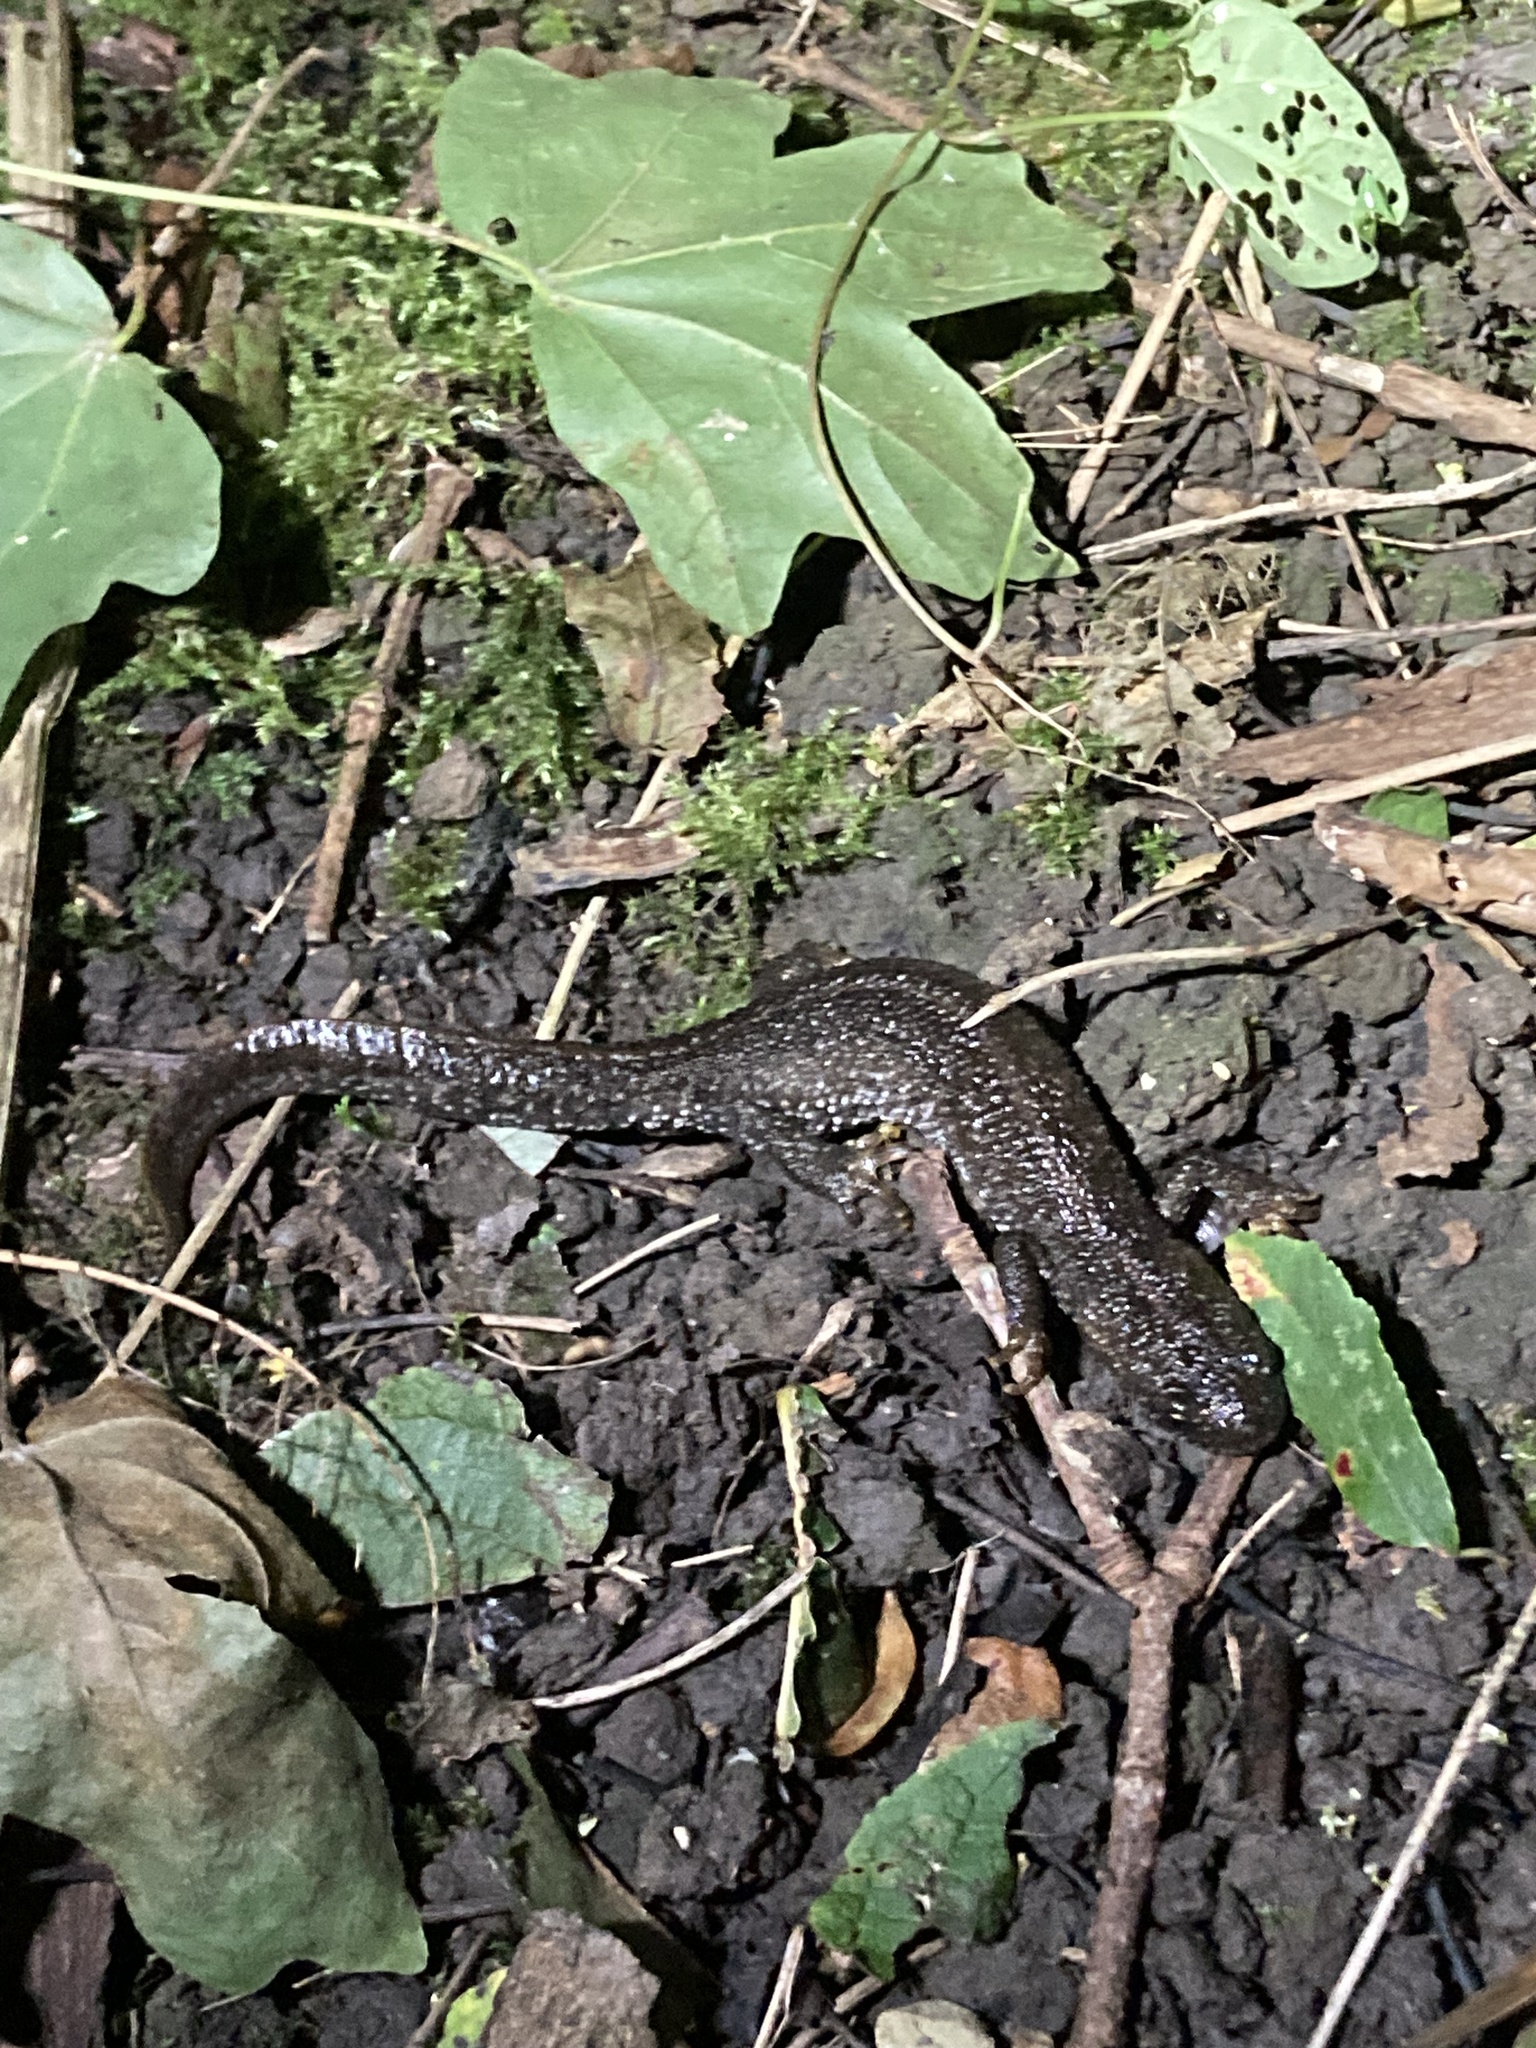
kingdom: Animalia
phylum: Chordata
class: Amphibia
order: Caudata
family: Salamandridae
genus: Triturus
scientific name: Triturus cristatus
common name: Crested newt
